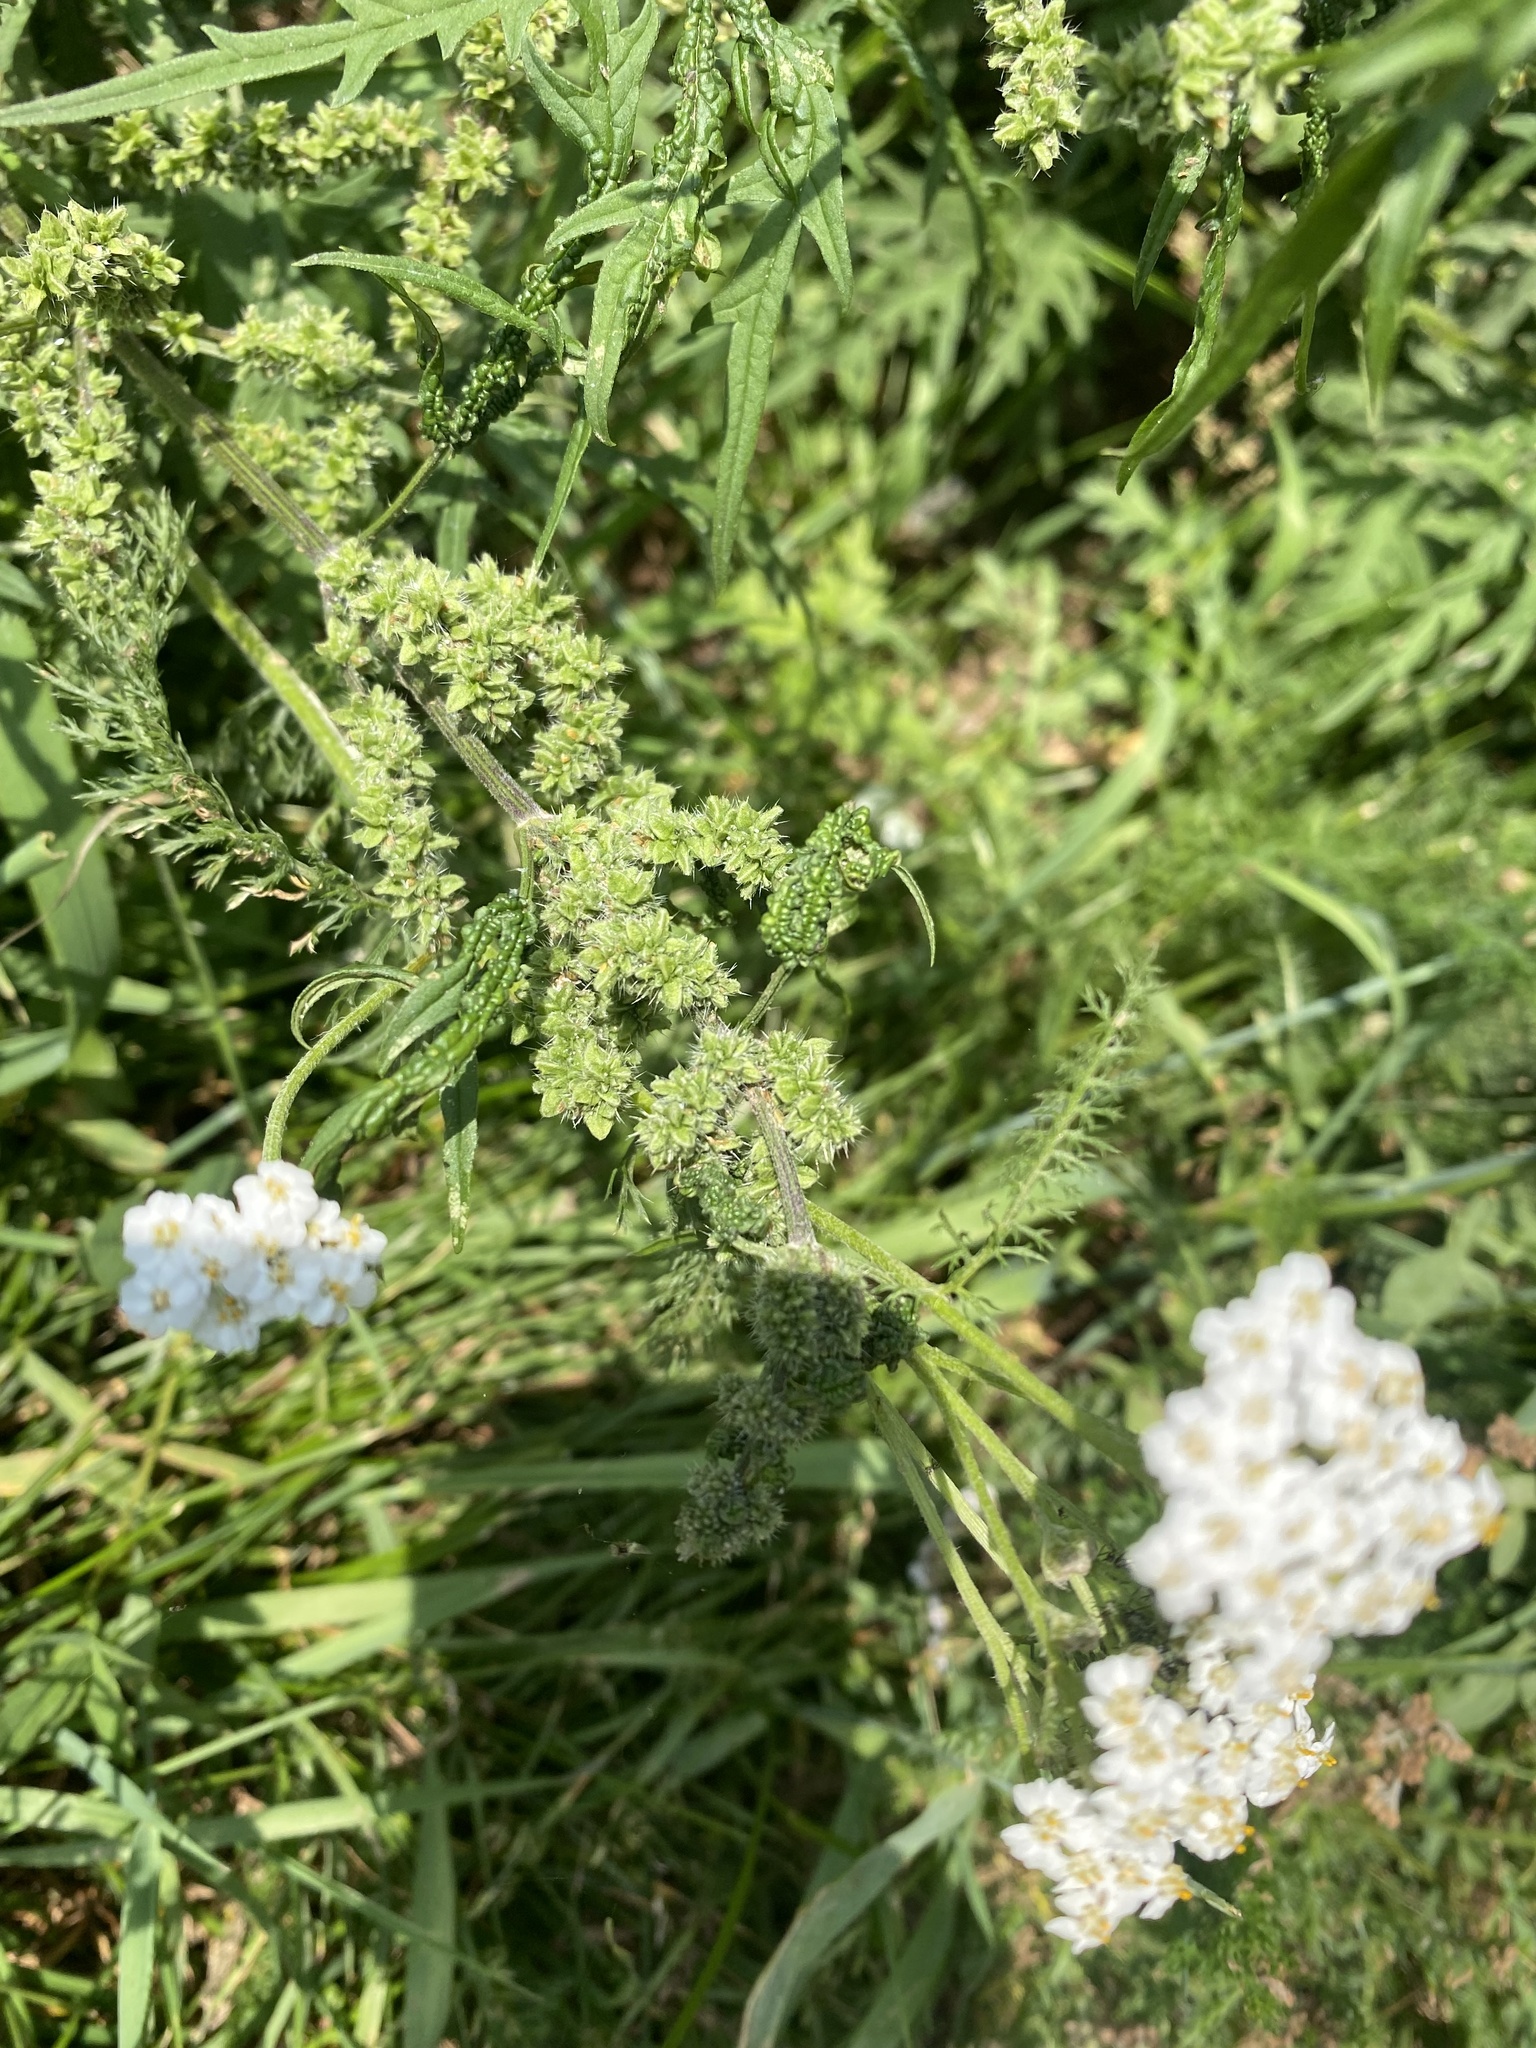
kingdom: Plantae
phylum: Tracheophyta
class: Magnoliopsida
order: Asterales
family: Asteraceae
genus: Achillea
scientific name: Achillea millefolium
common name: Yarrow
